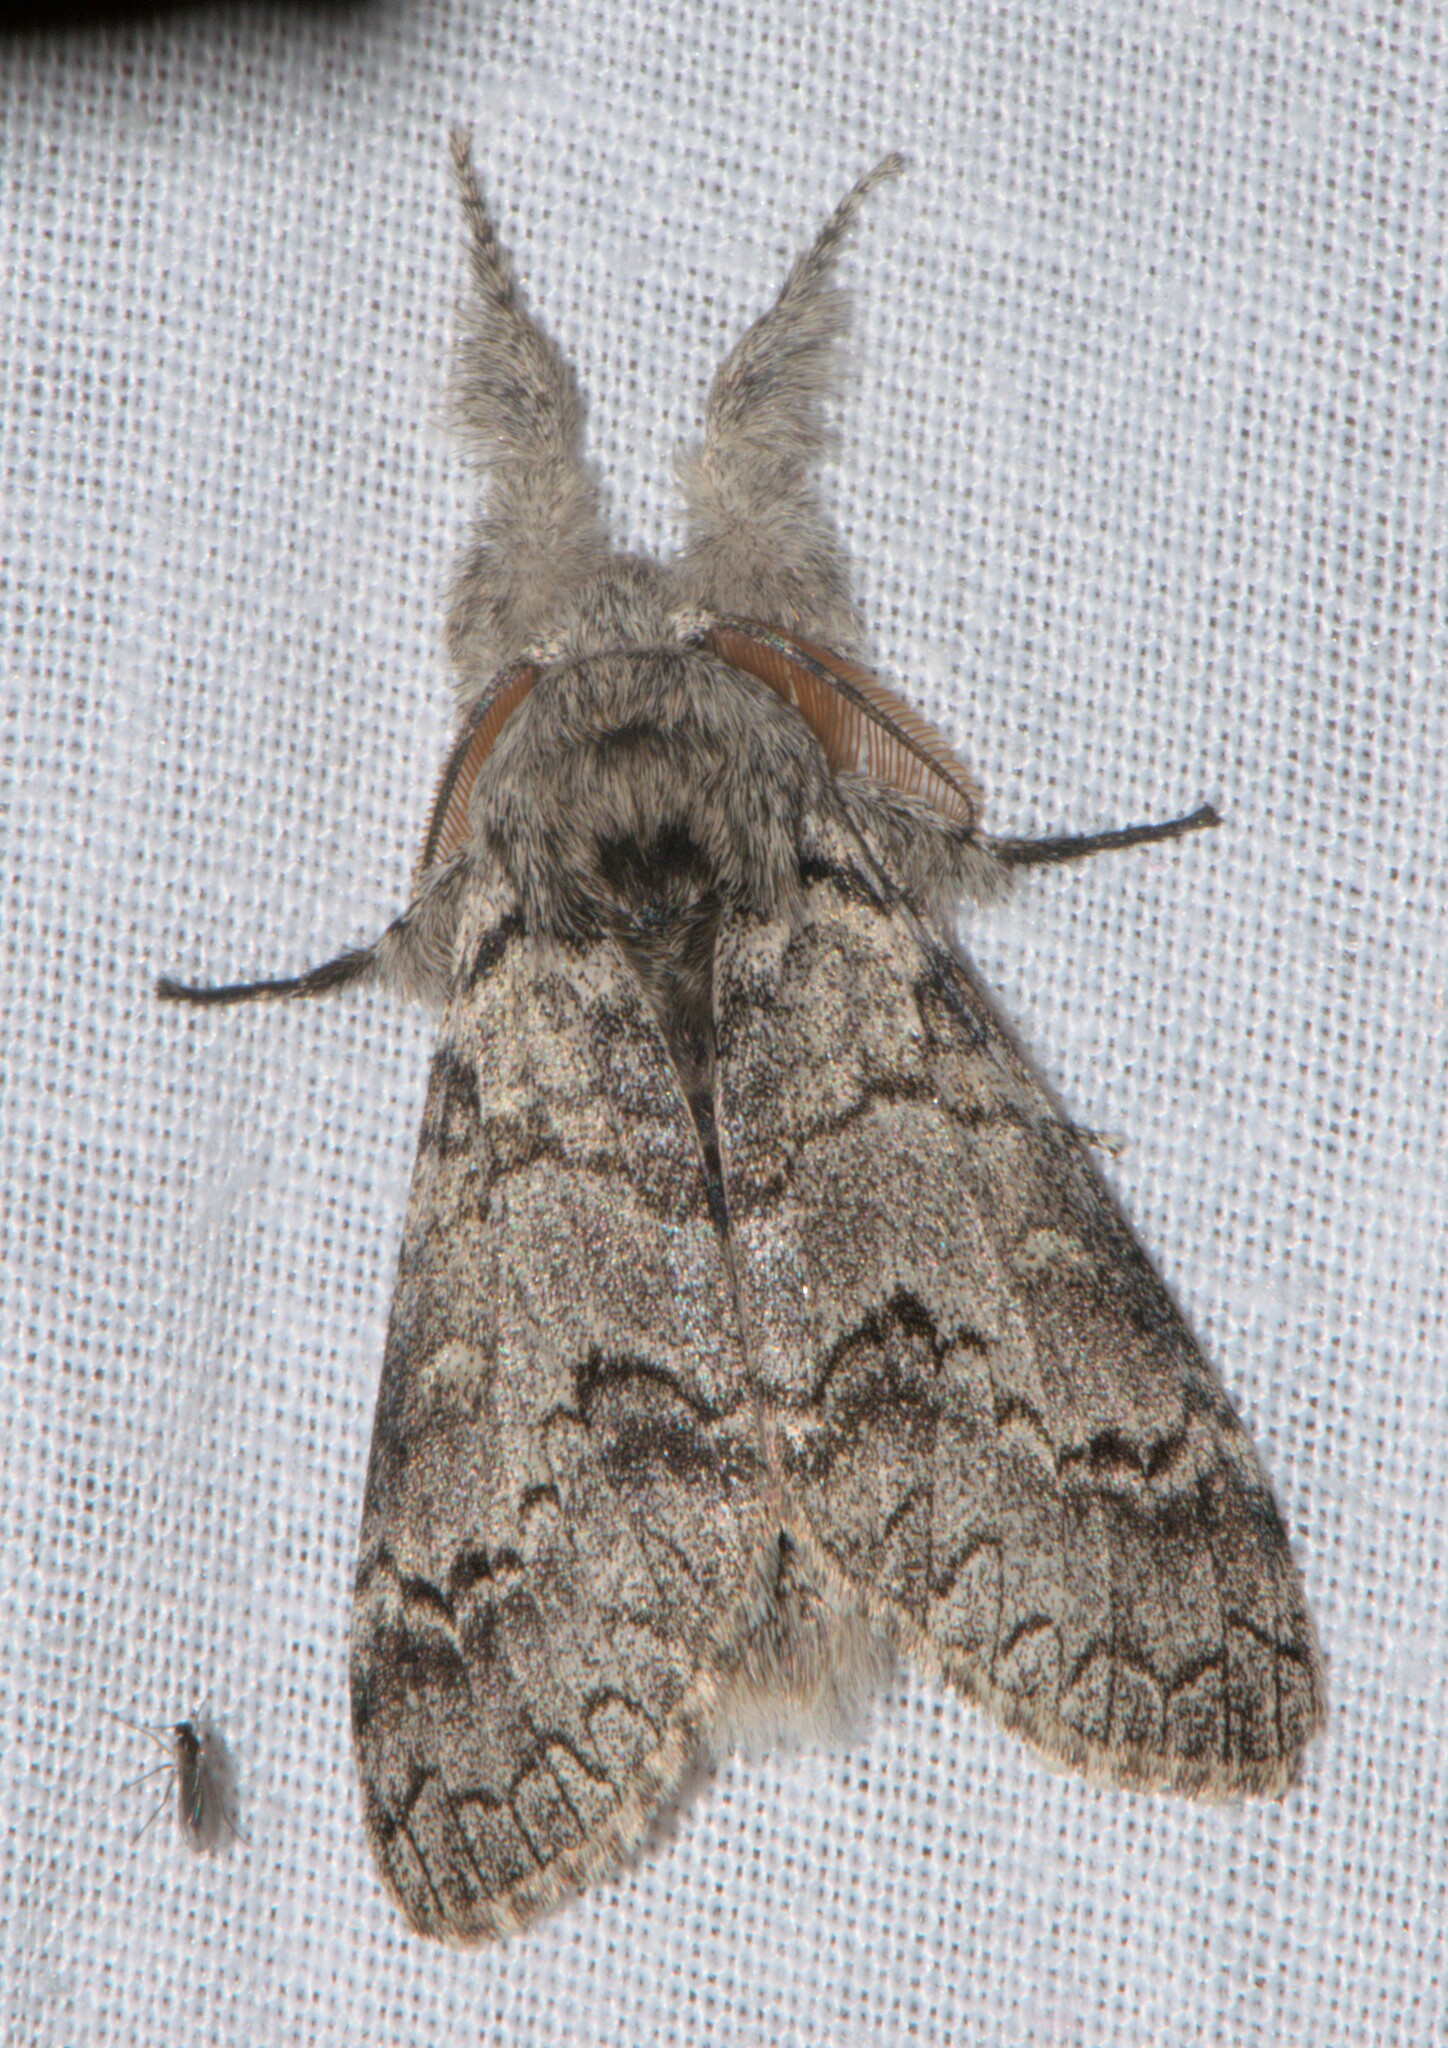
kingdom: Animalia
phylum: Arthropoda
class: Insecta
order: Lepidoptera
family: Erebidae
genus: Calliteara
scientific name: Calliteara varia
